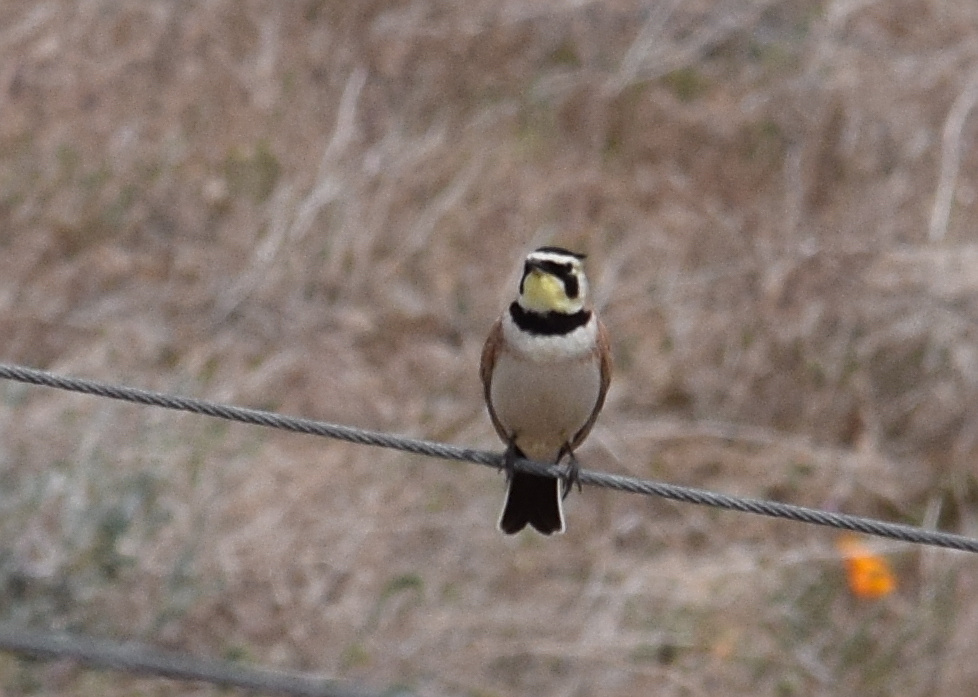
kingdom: Animalia
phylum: Chordata
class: Aves
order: Passeriformes
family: Alaudidae
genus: Eremophila
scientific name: Eremophila alpestris
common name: Horned lark
